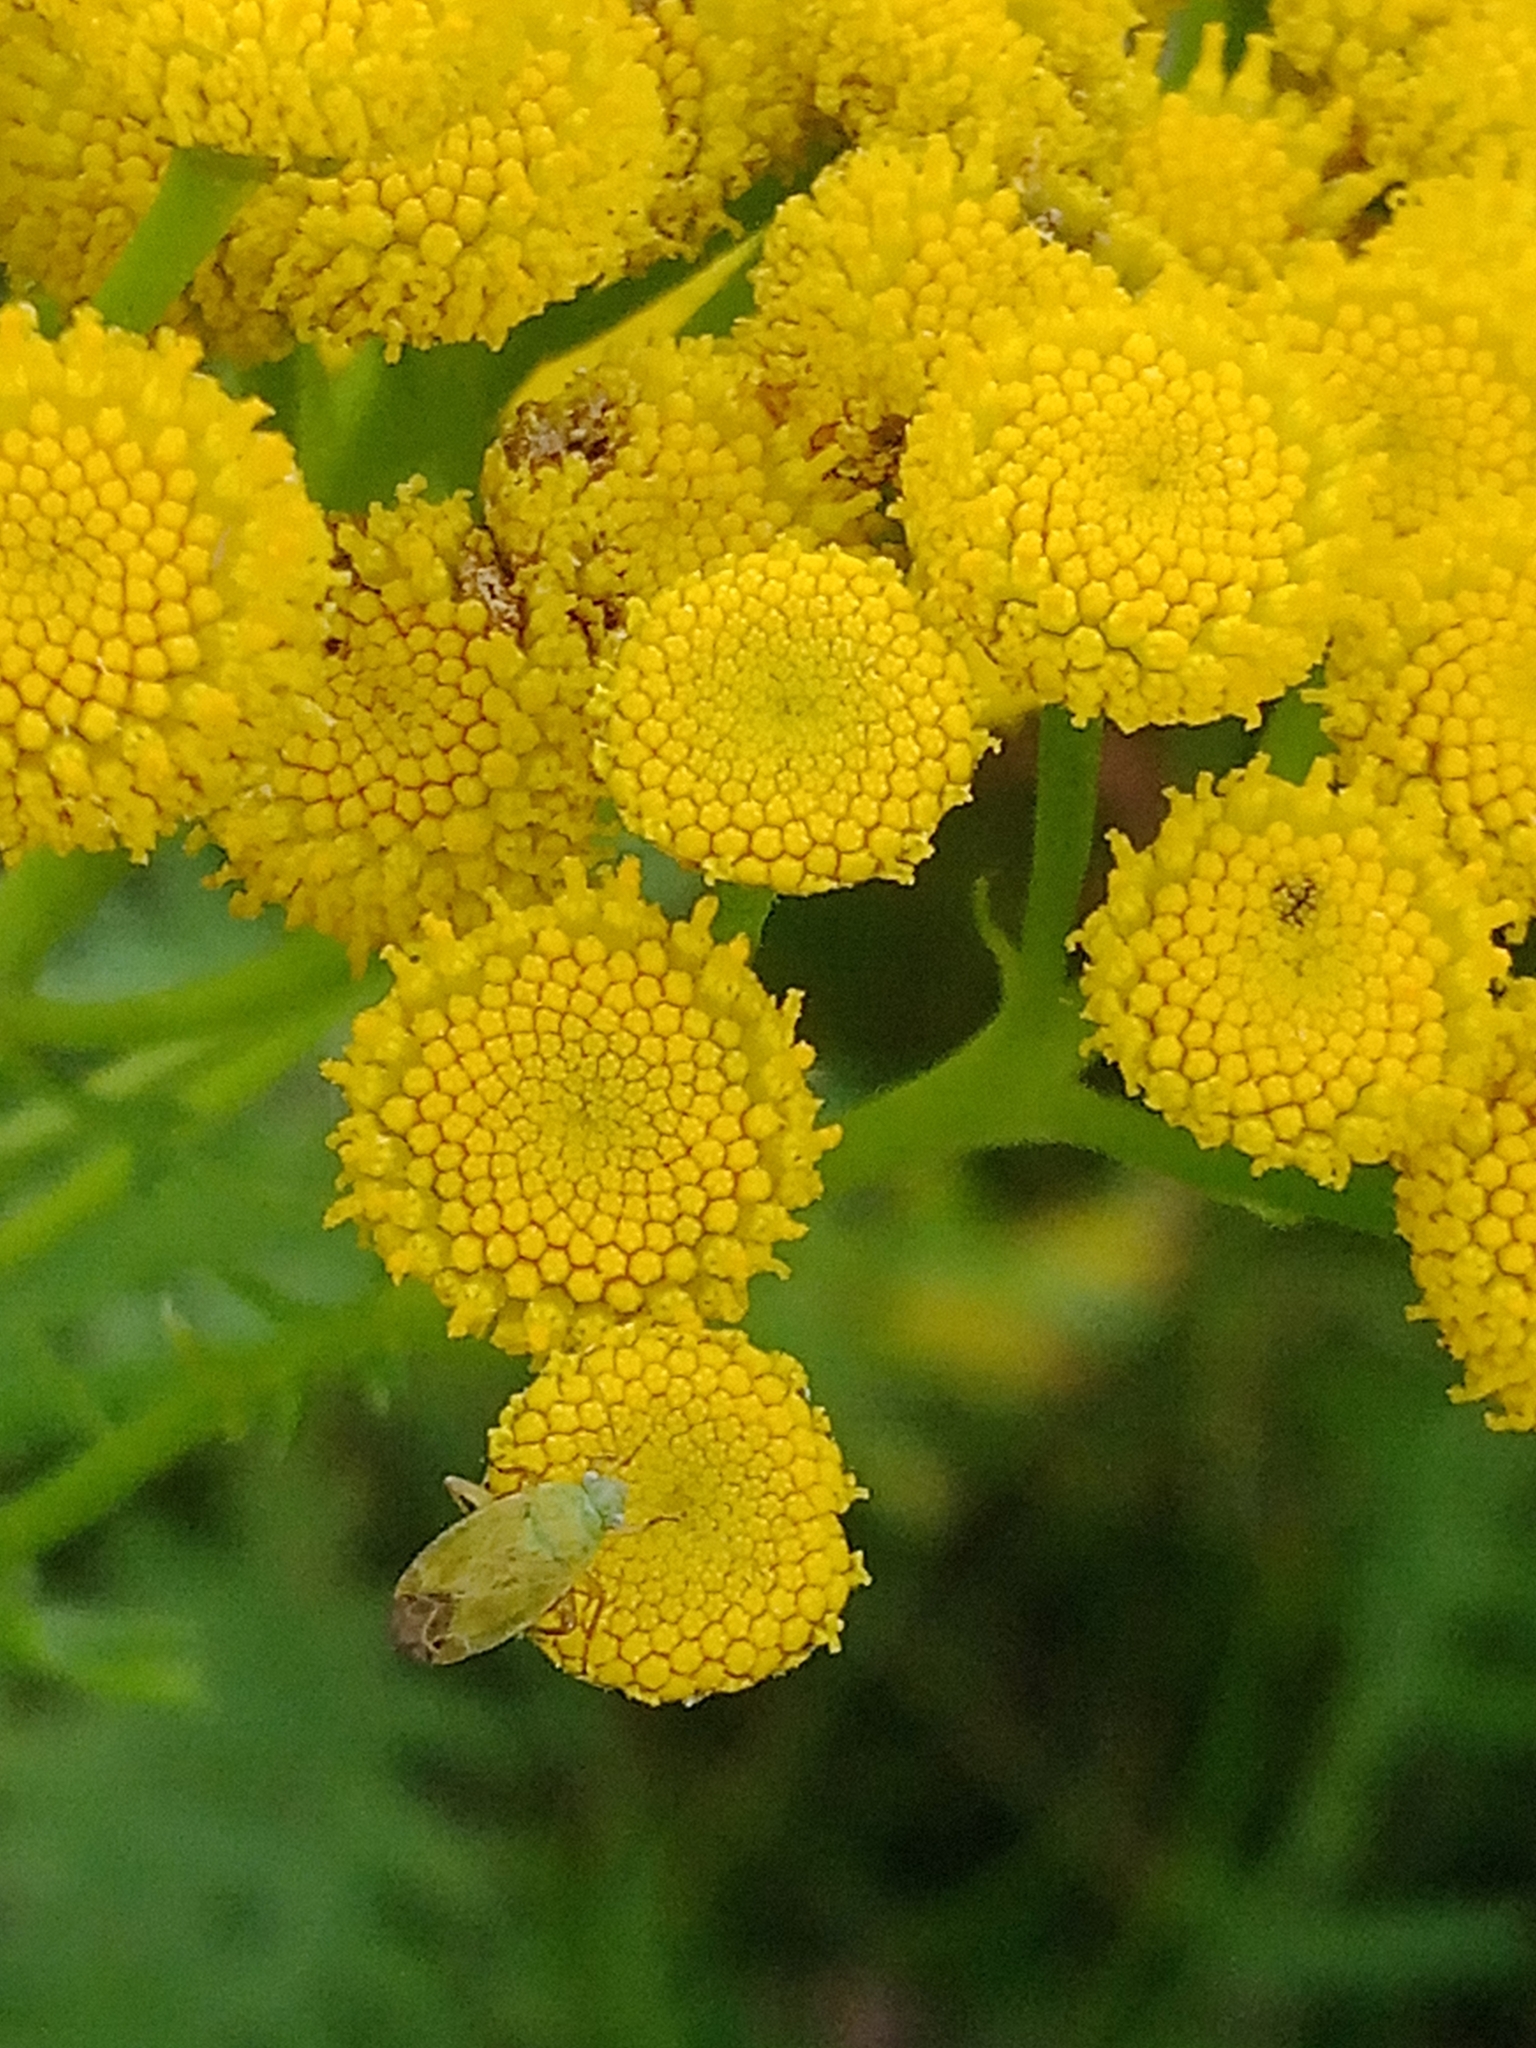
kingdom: Animalia
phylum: Arthropoda
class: Insecta
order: Hemiptera
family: Miridae
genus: Megalocoleus
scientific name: Megalocoleus tanaceti
